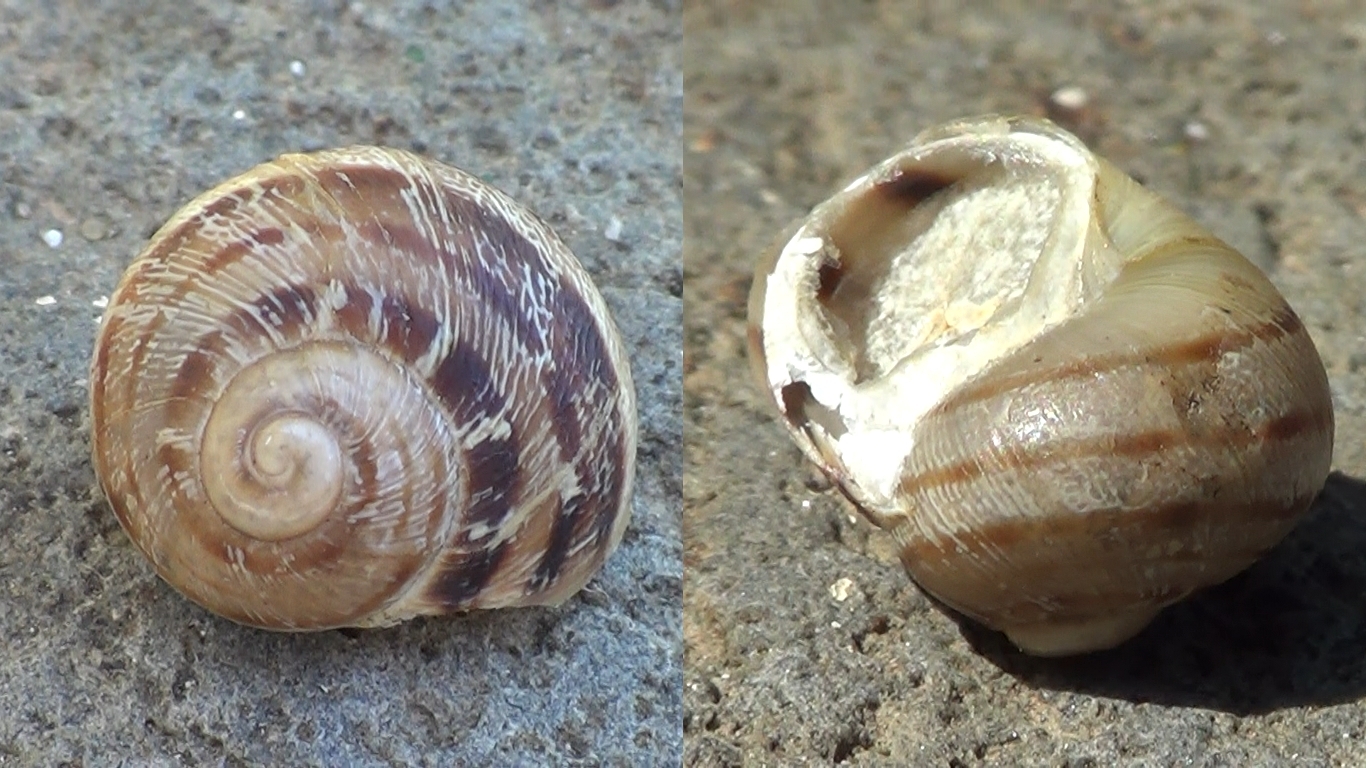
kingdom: Animalia
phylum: Mollusca
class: Gastropoda
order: Stylommatophora
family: Helicidae
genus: Cornu
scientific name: Cornu aspersum
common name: Brown garden snail
